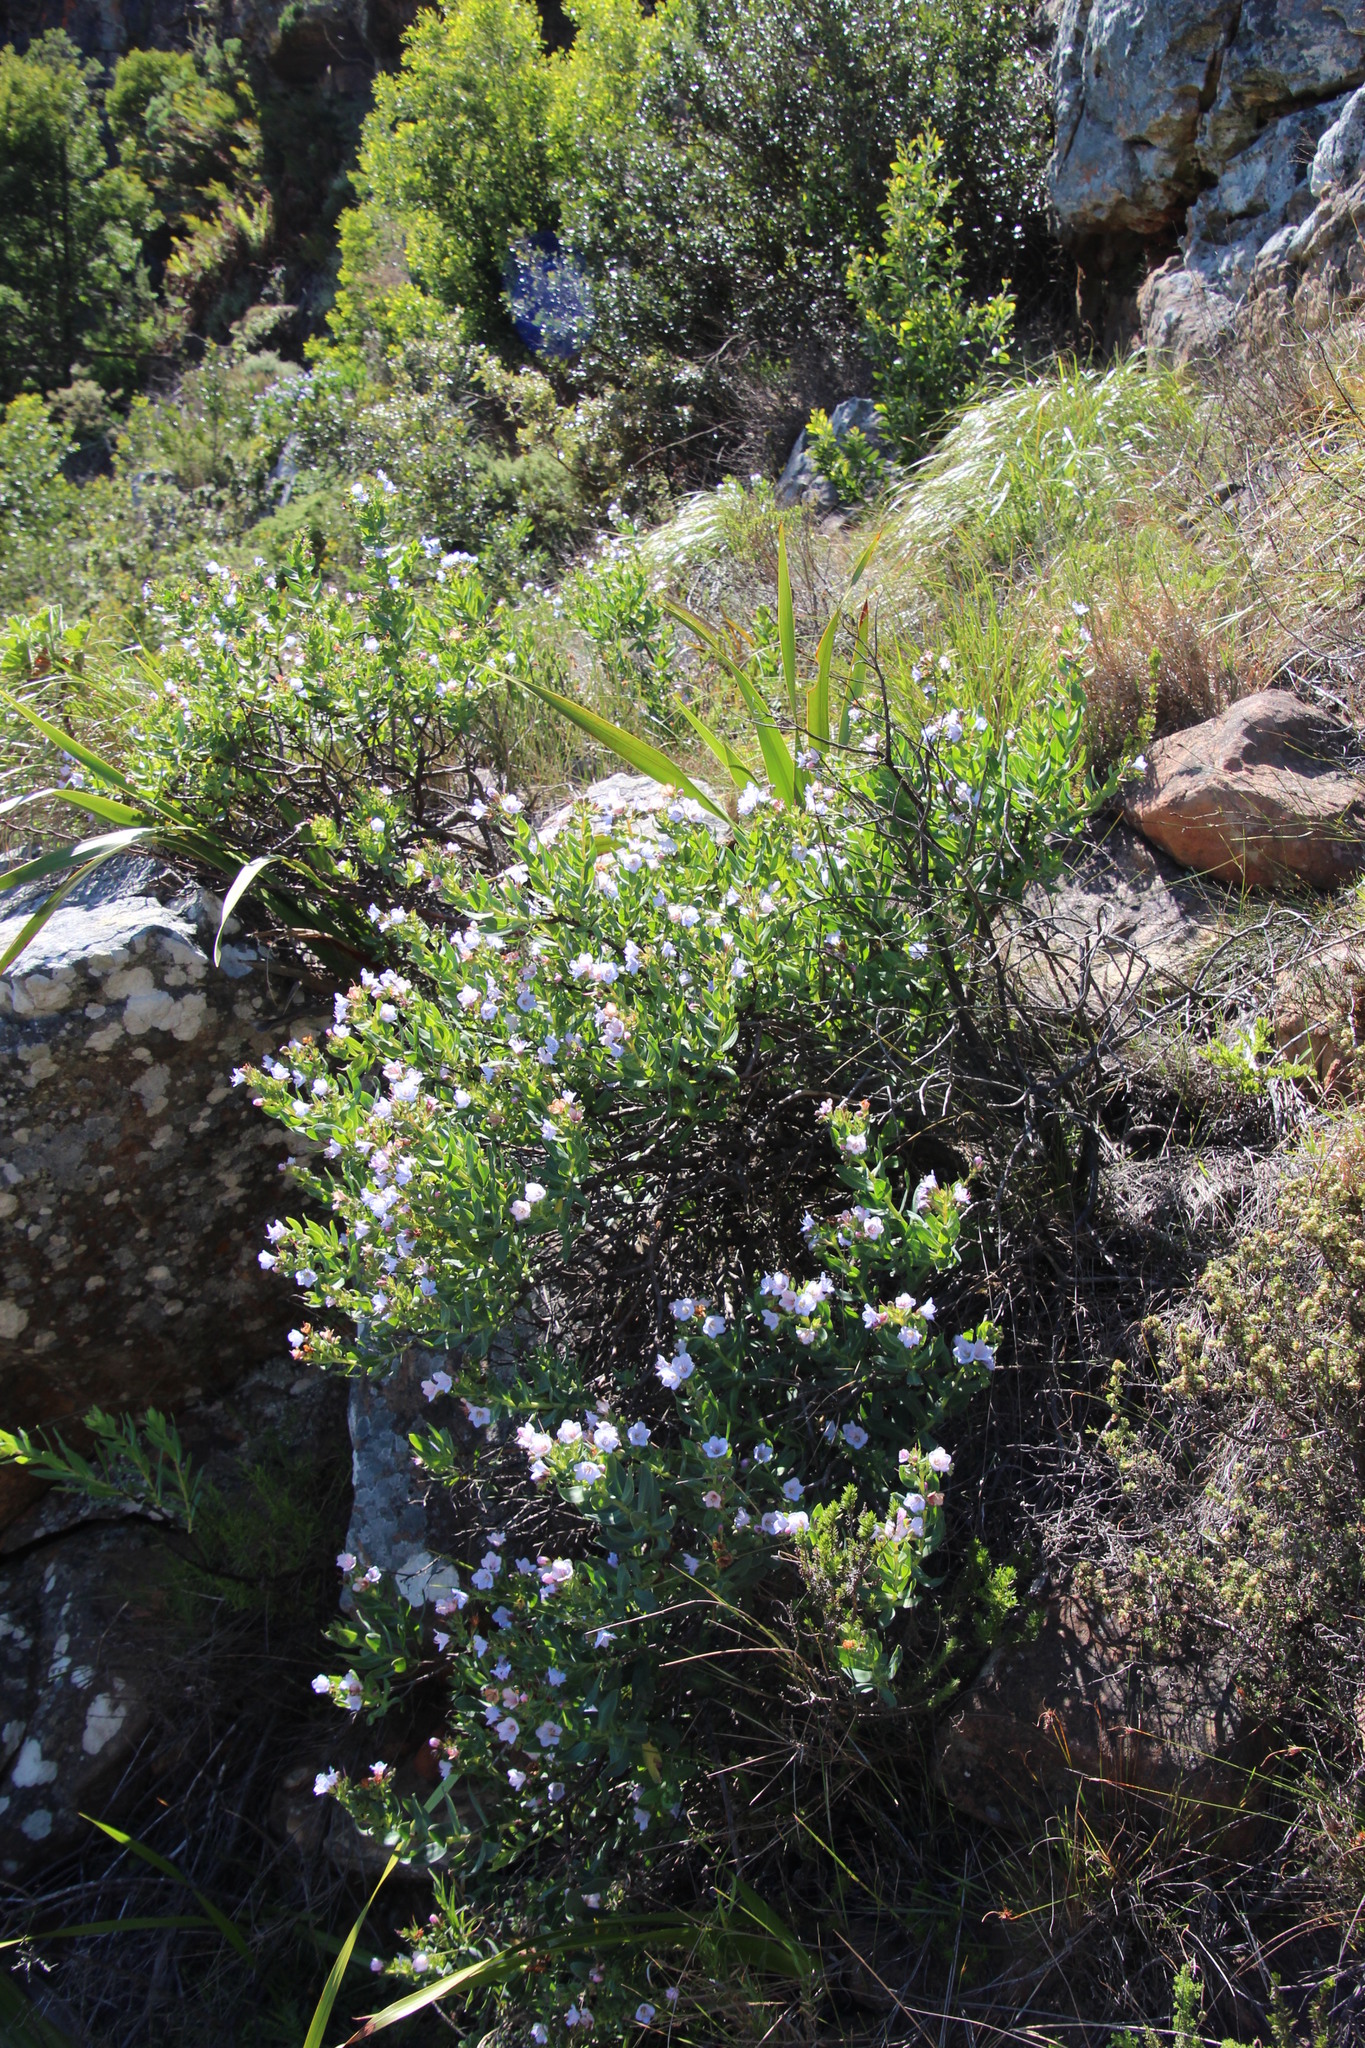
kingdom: Plantae
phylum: Tracheophyta
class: Magnoliopsida
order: Boraginales
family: Boraginaceae
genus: Lobostemon
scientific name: Lobostemon glaucophyllus
